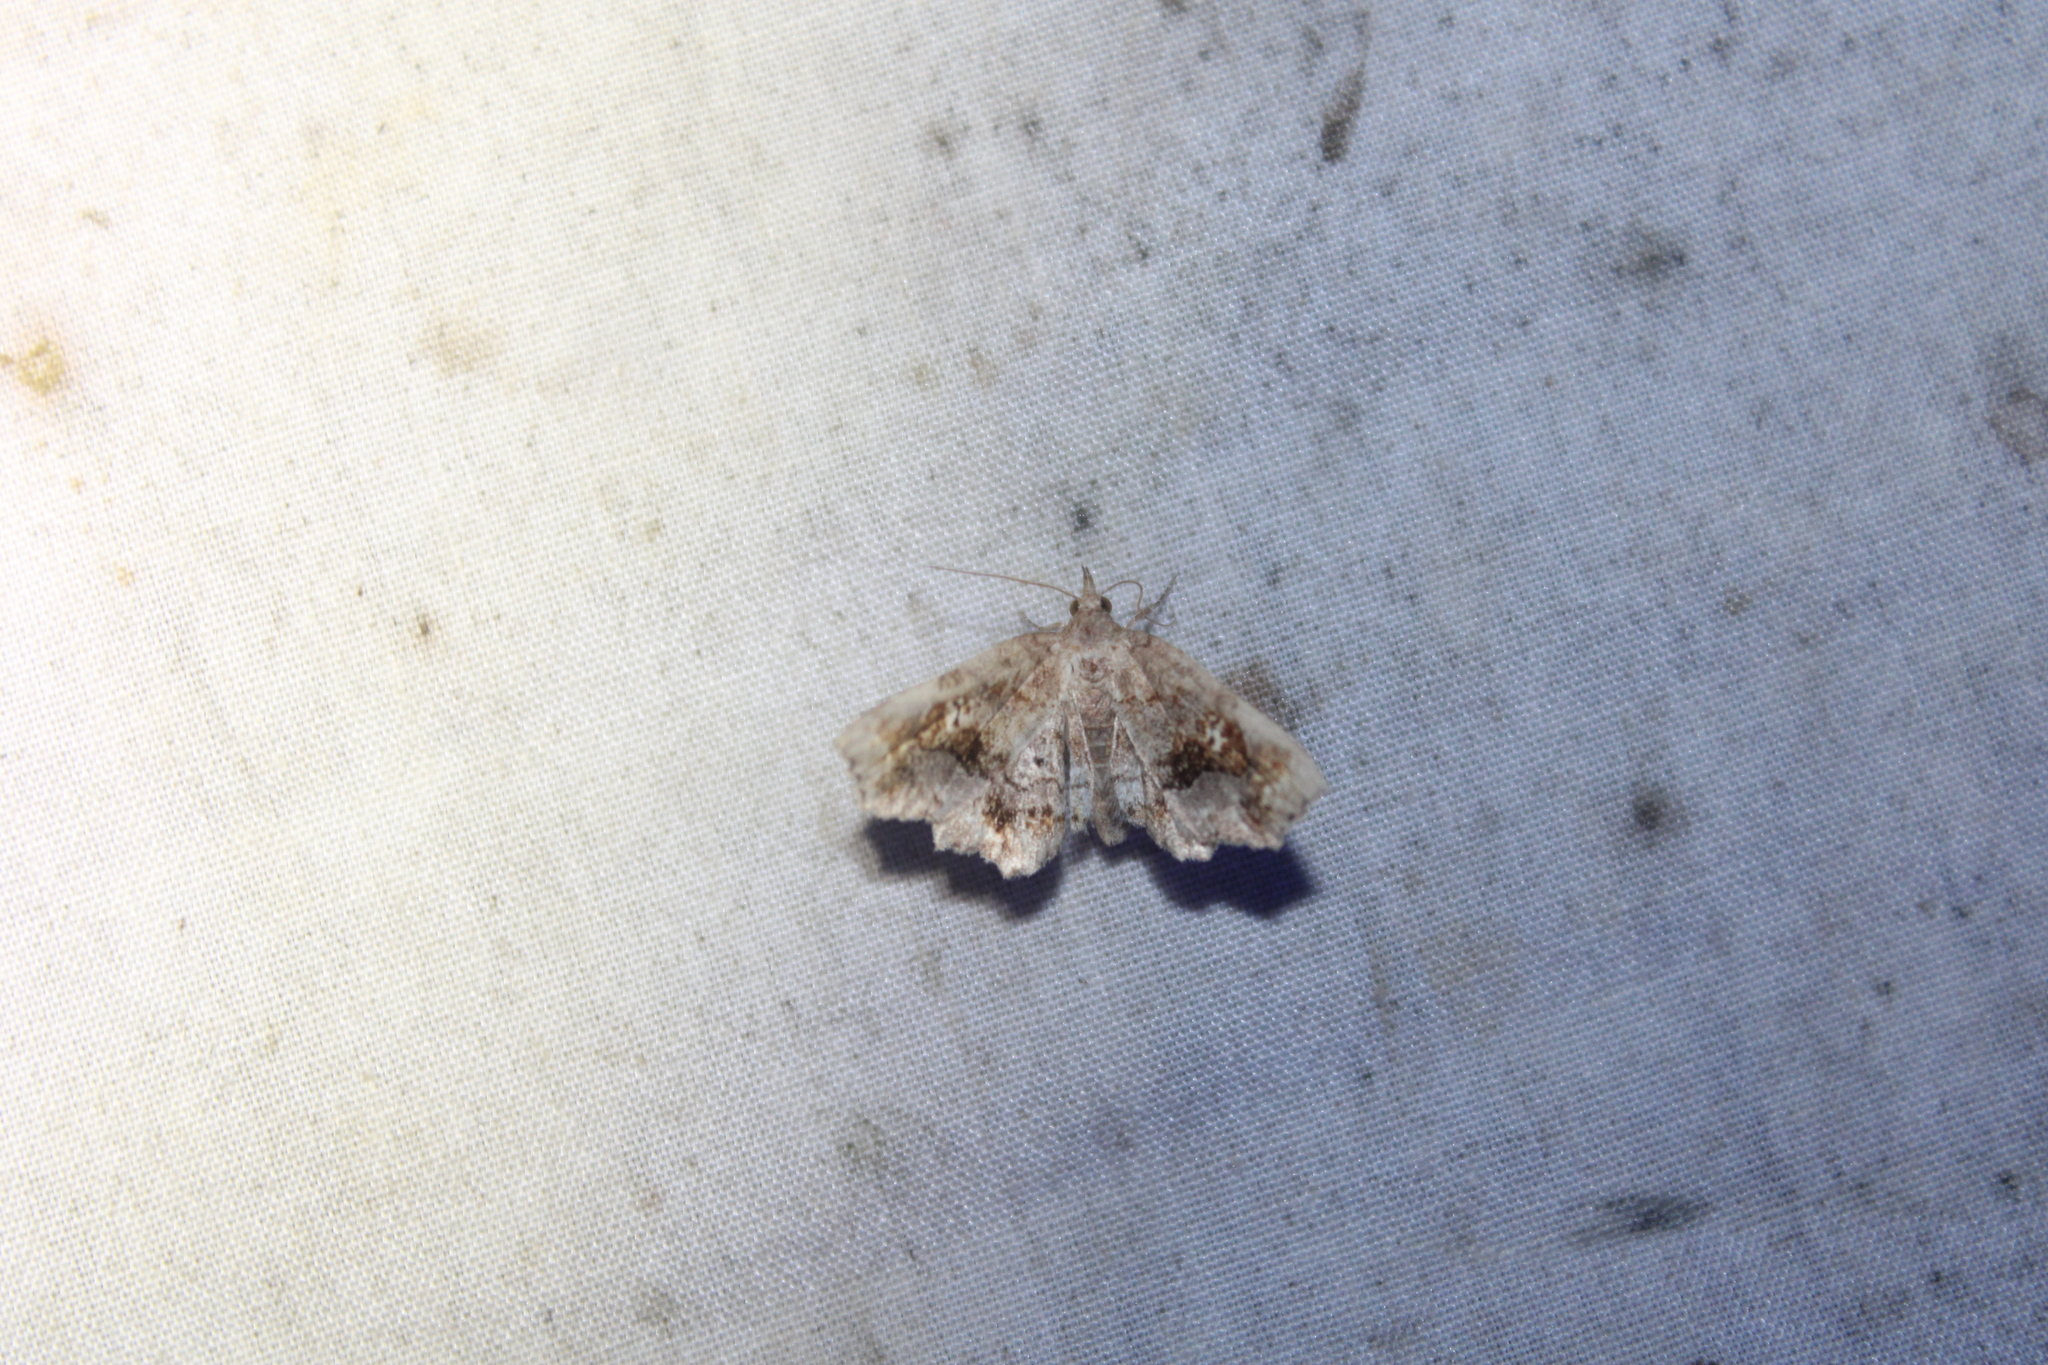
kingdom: Animalia
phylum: Arthropoda
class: Insecta
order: Lepidoptera
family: Erebidae
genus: Pangrapta
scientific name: Pangrapta decoralis
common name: Decorated owlet
